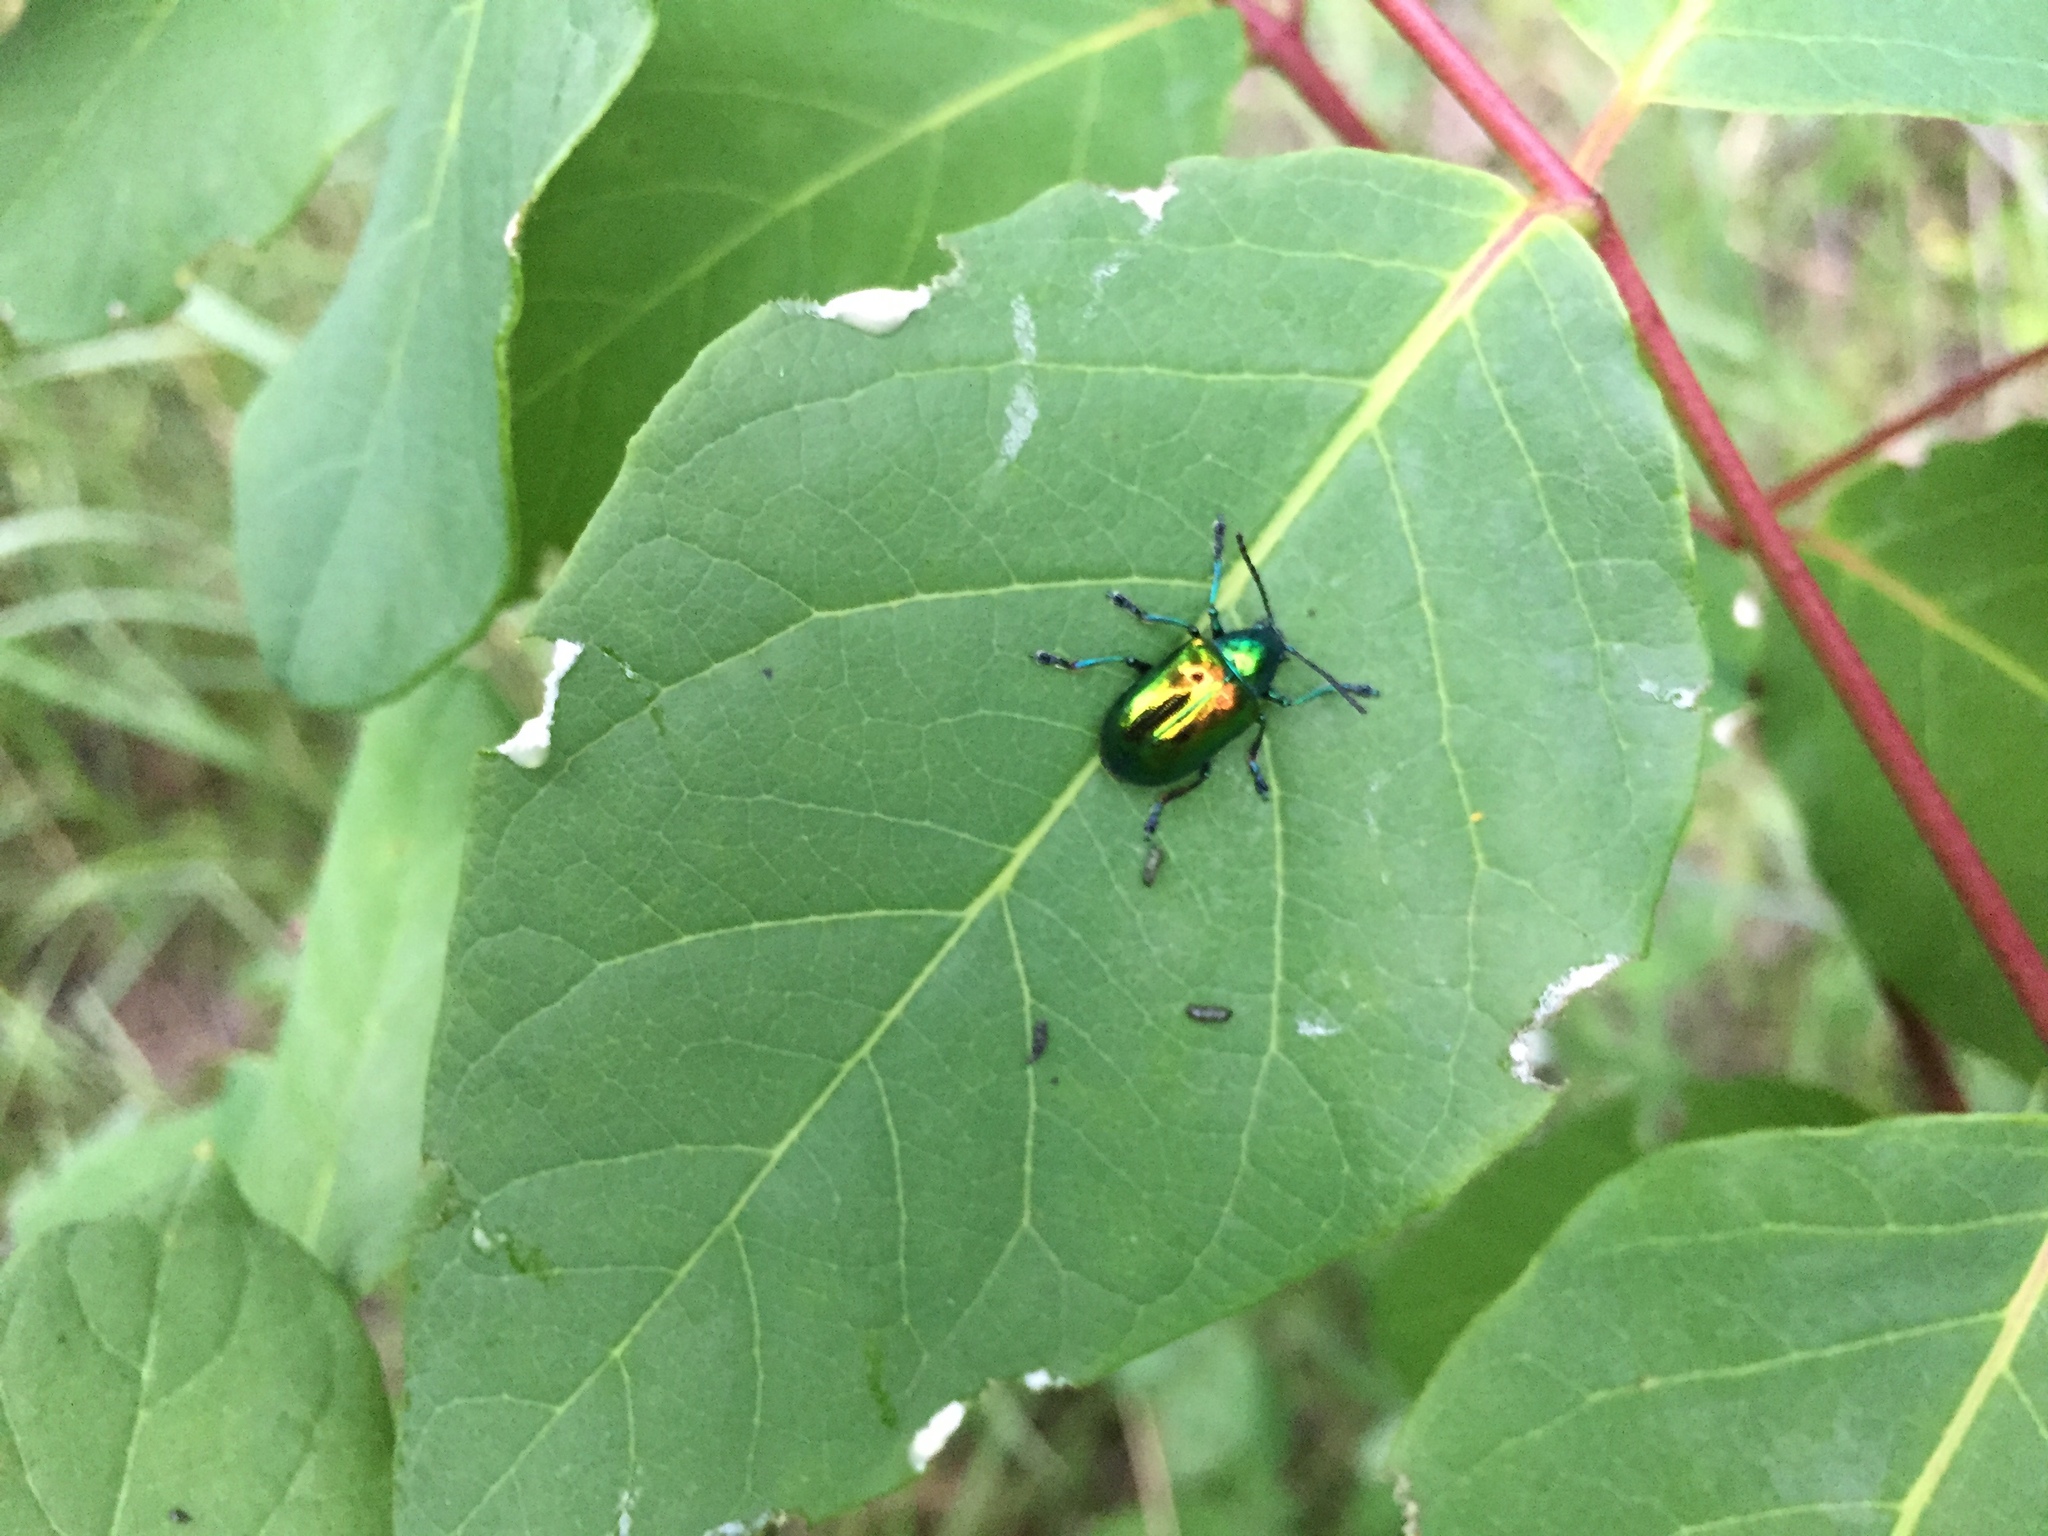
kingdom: Animalia
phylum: Arthropoda
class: Insecta
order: Coleoptera
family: Chrysomelidae
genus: Chrysochus
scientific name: Chrysochus auratus
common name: Dogbane leaf beetle
